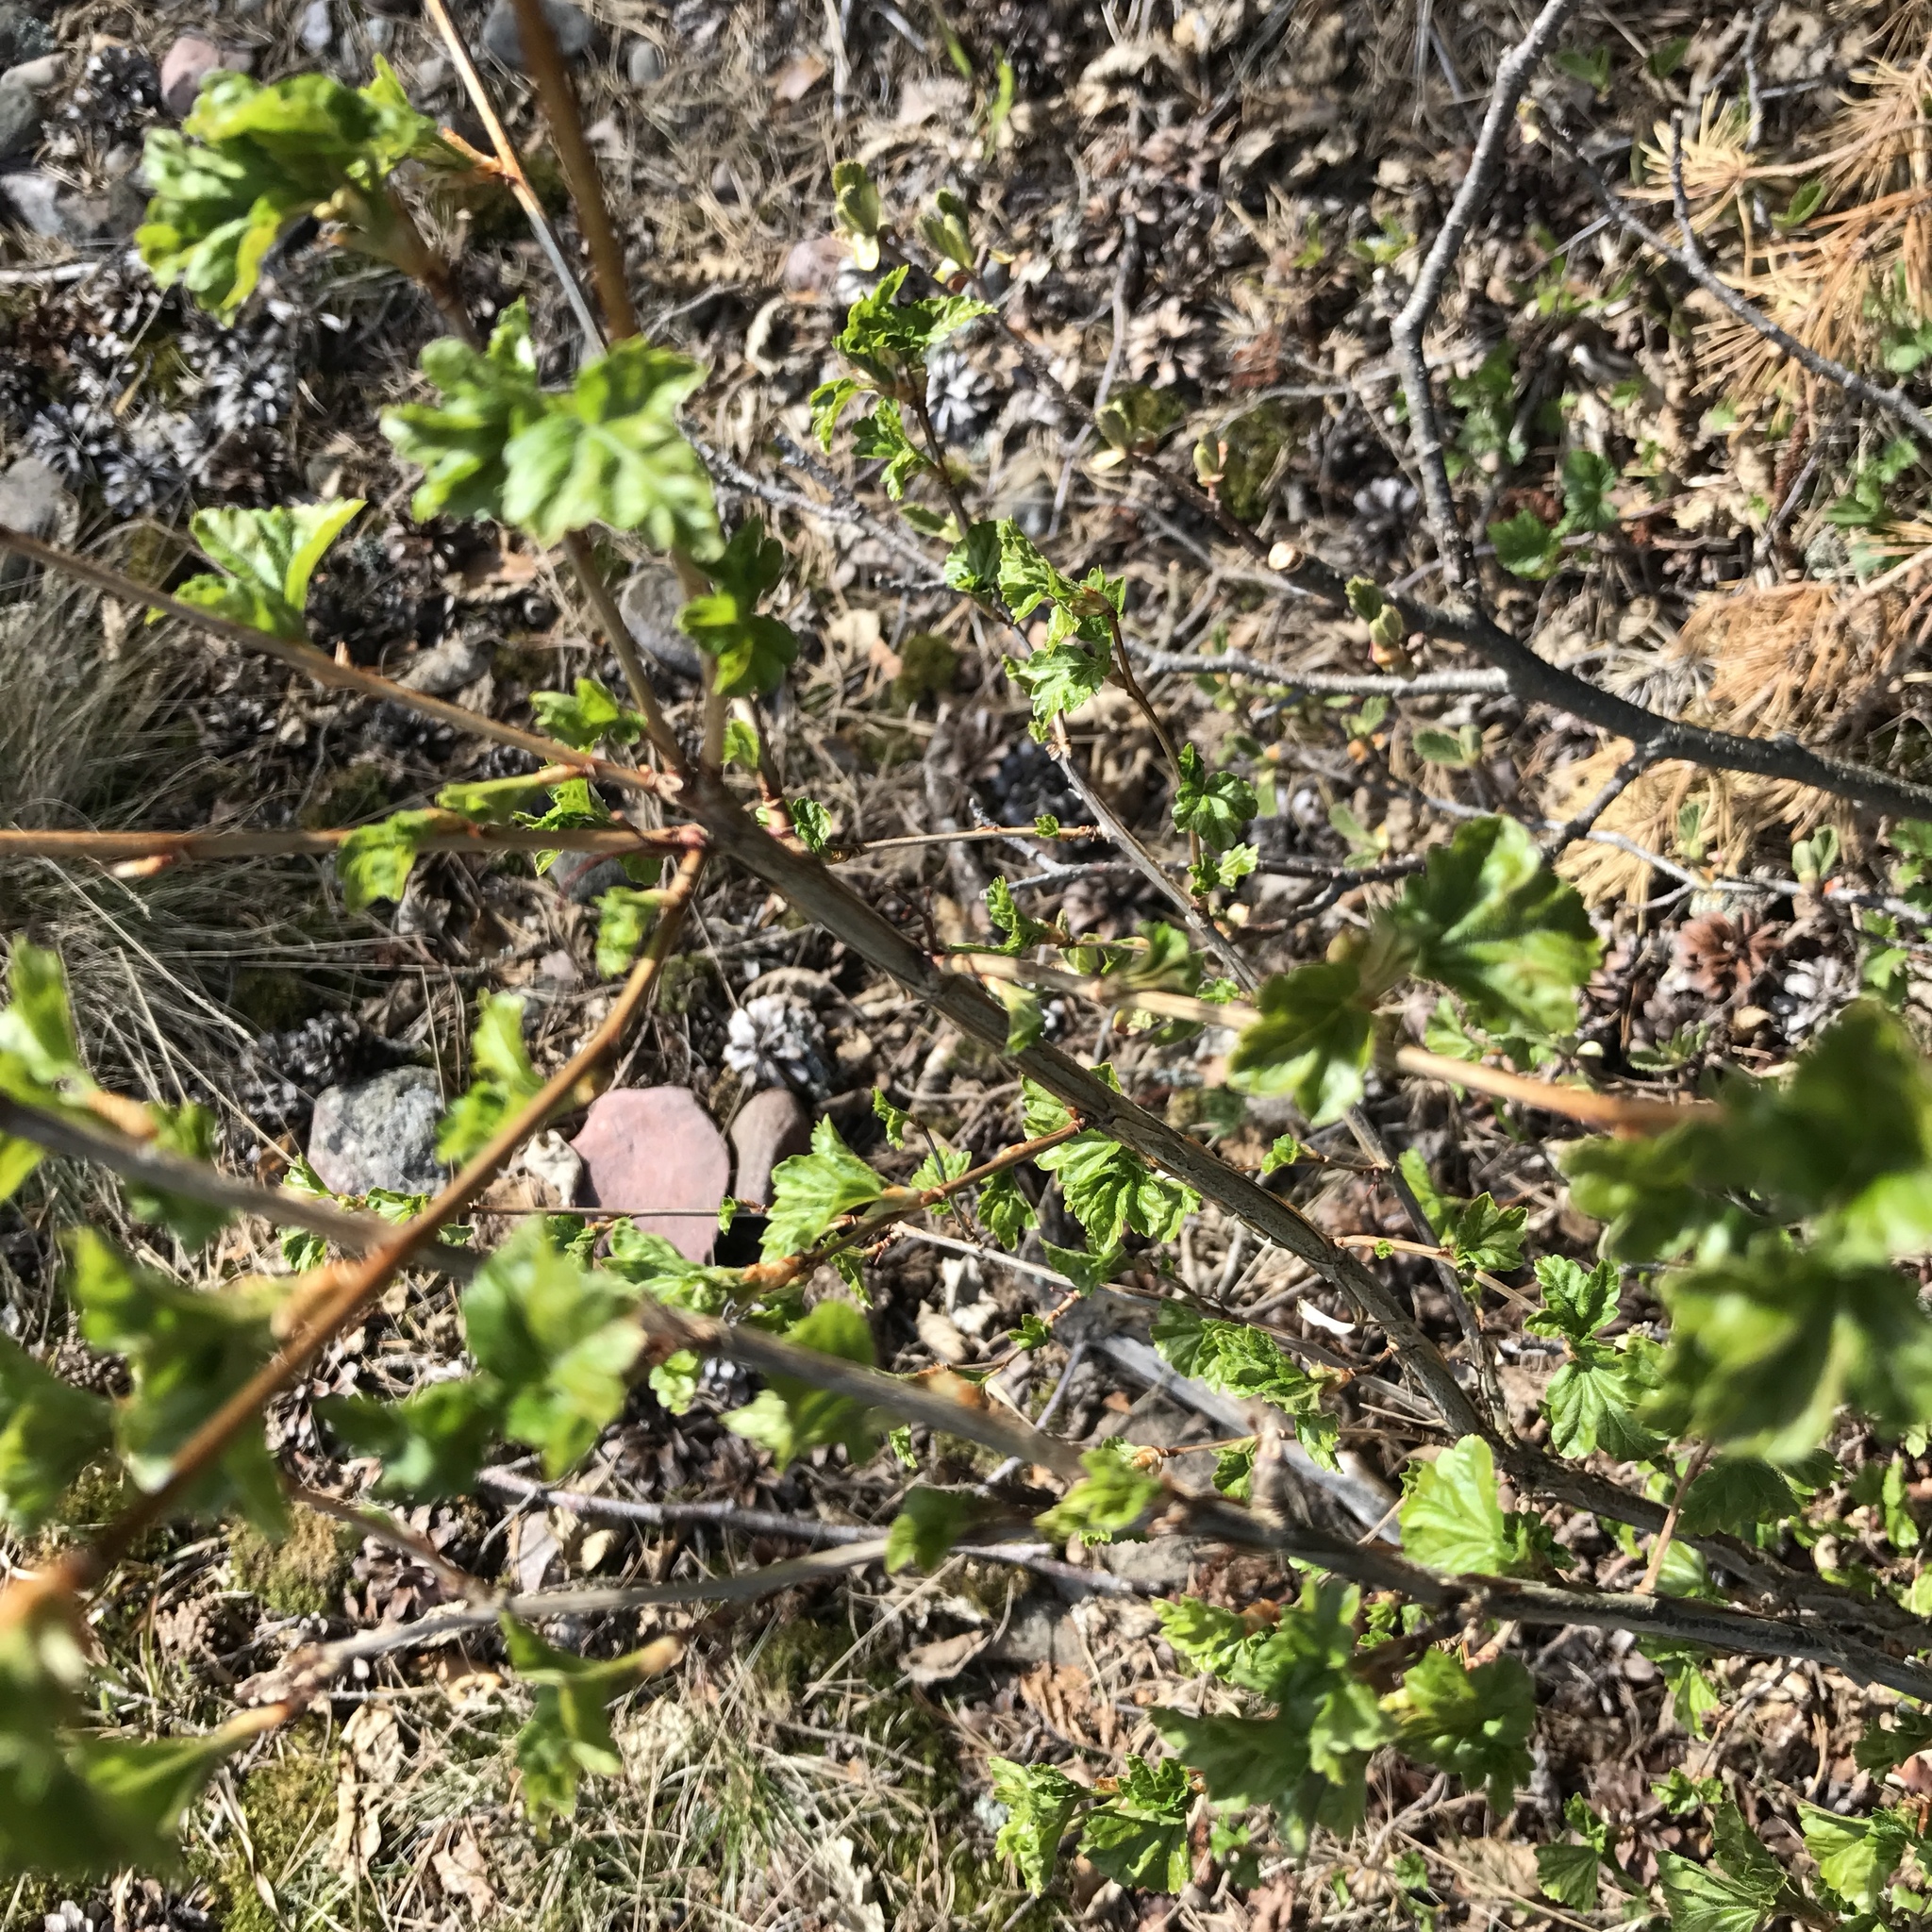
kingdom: Plantae
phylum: Tracheophyta
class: Magnoliopsida
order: Saxifragales
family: Grossulariaceae
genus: Ribes
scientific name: Ribes alpinum
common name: Alpine currant
